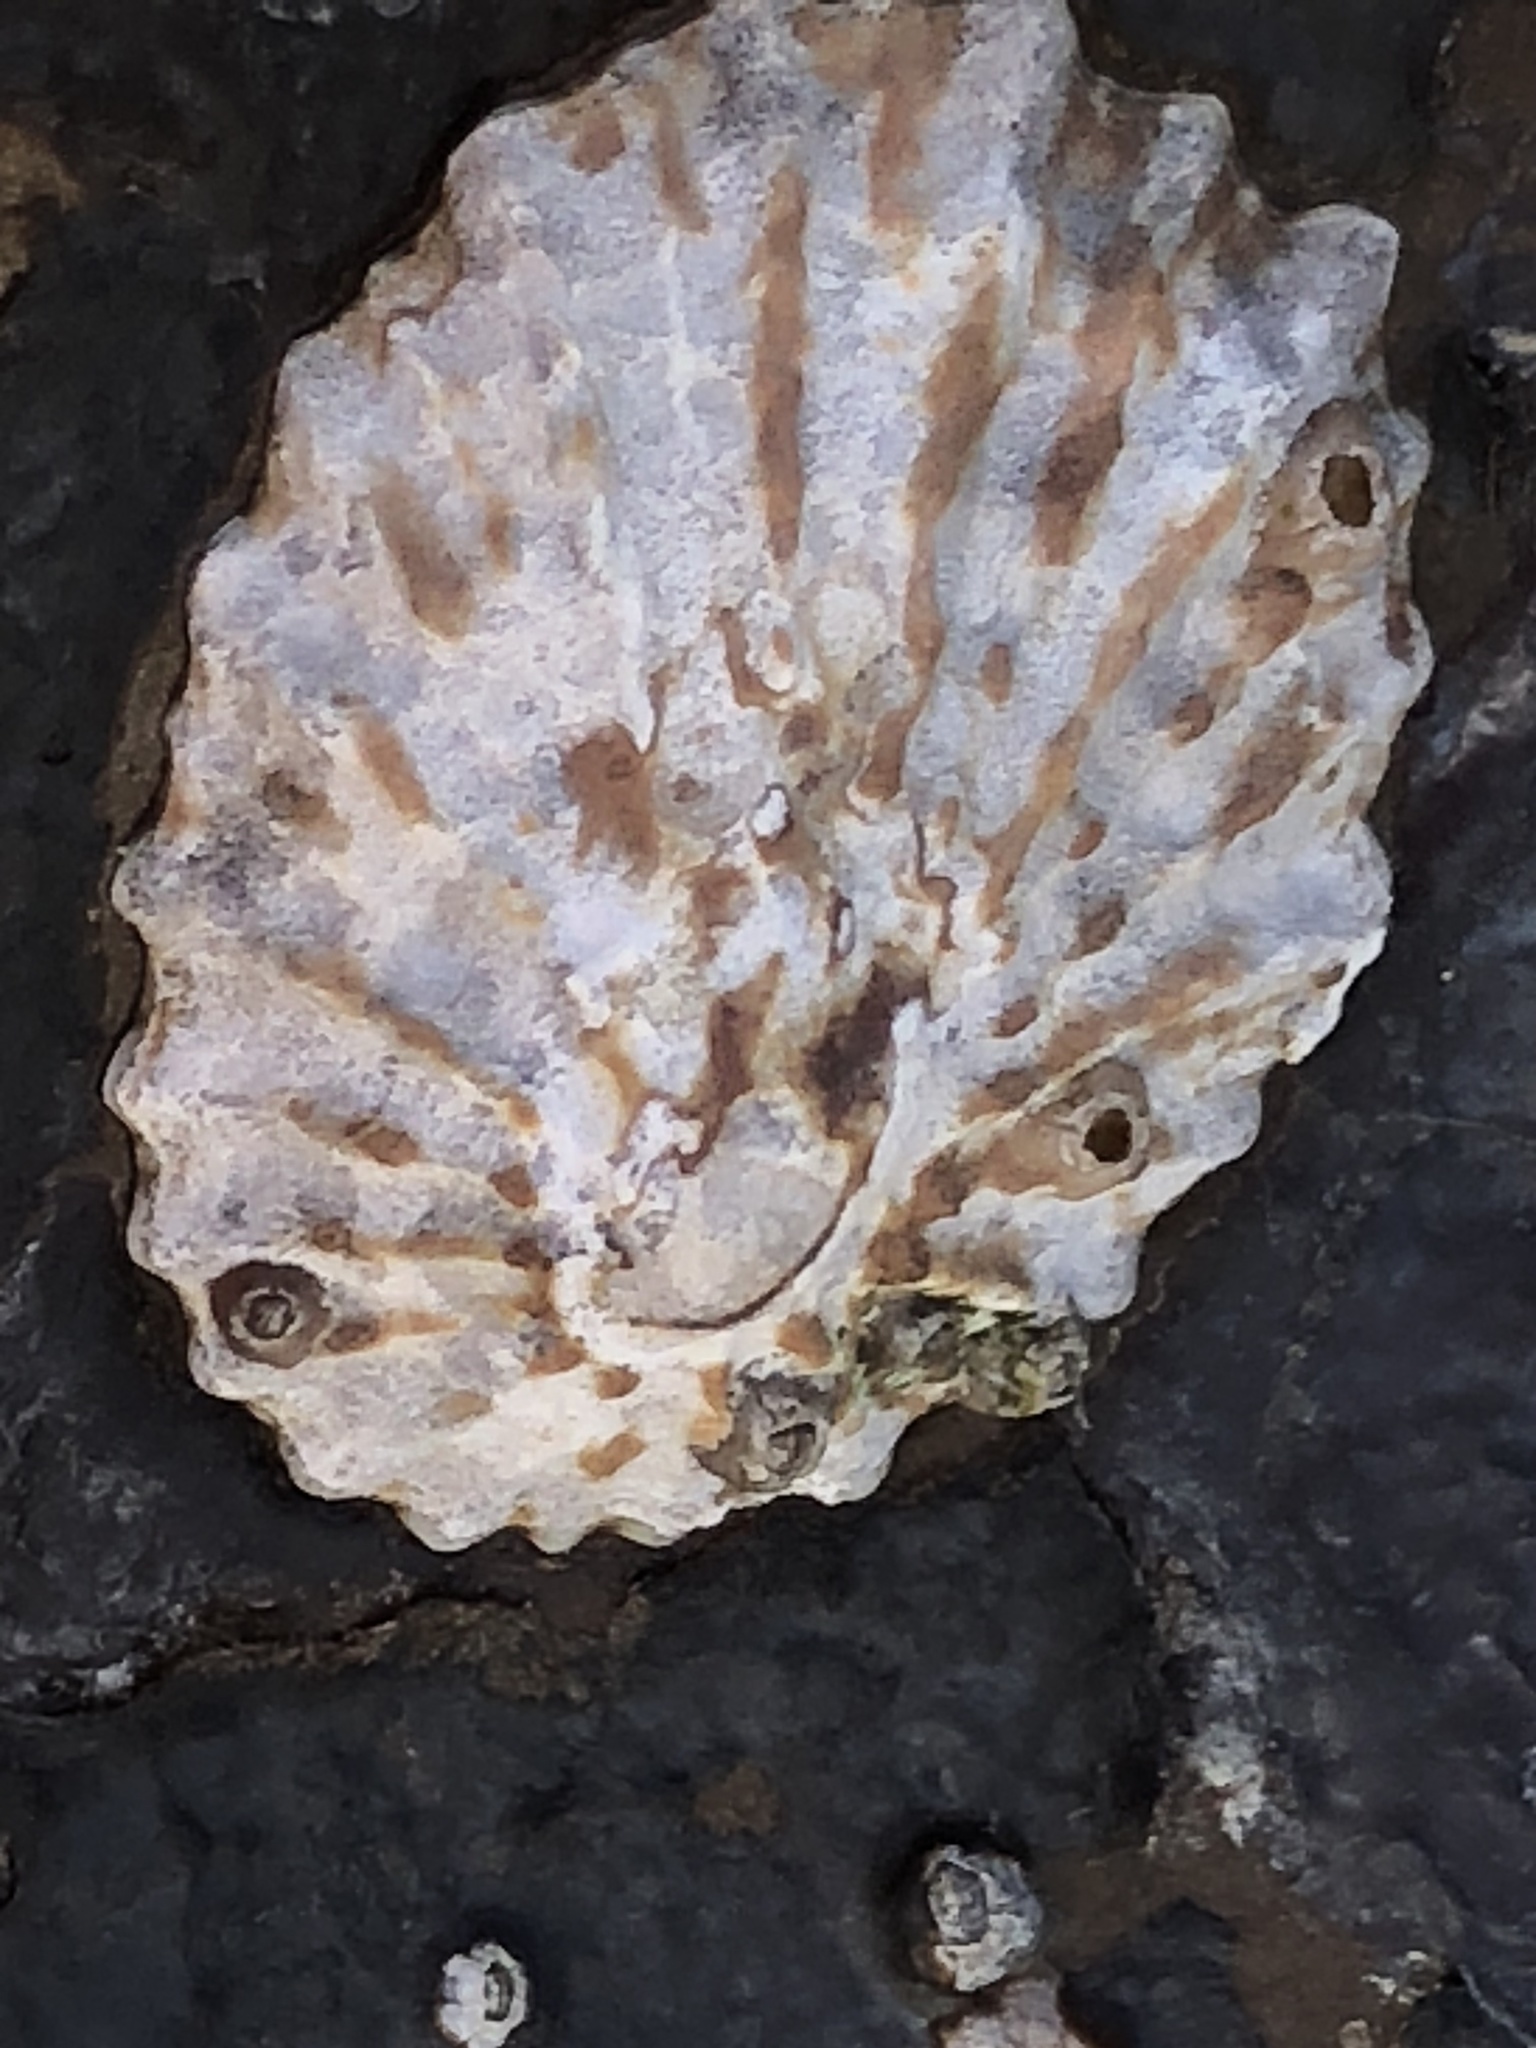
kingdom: Animalia
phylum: Mollusca
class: Gastropoda
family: Lottiidae
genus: Lottia
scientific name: Lottia scabra
